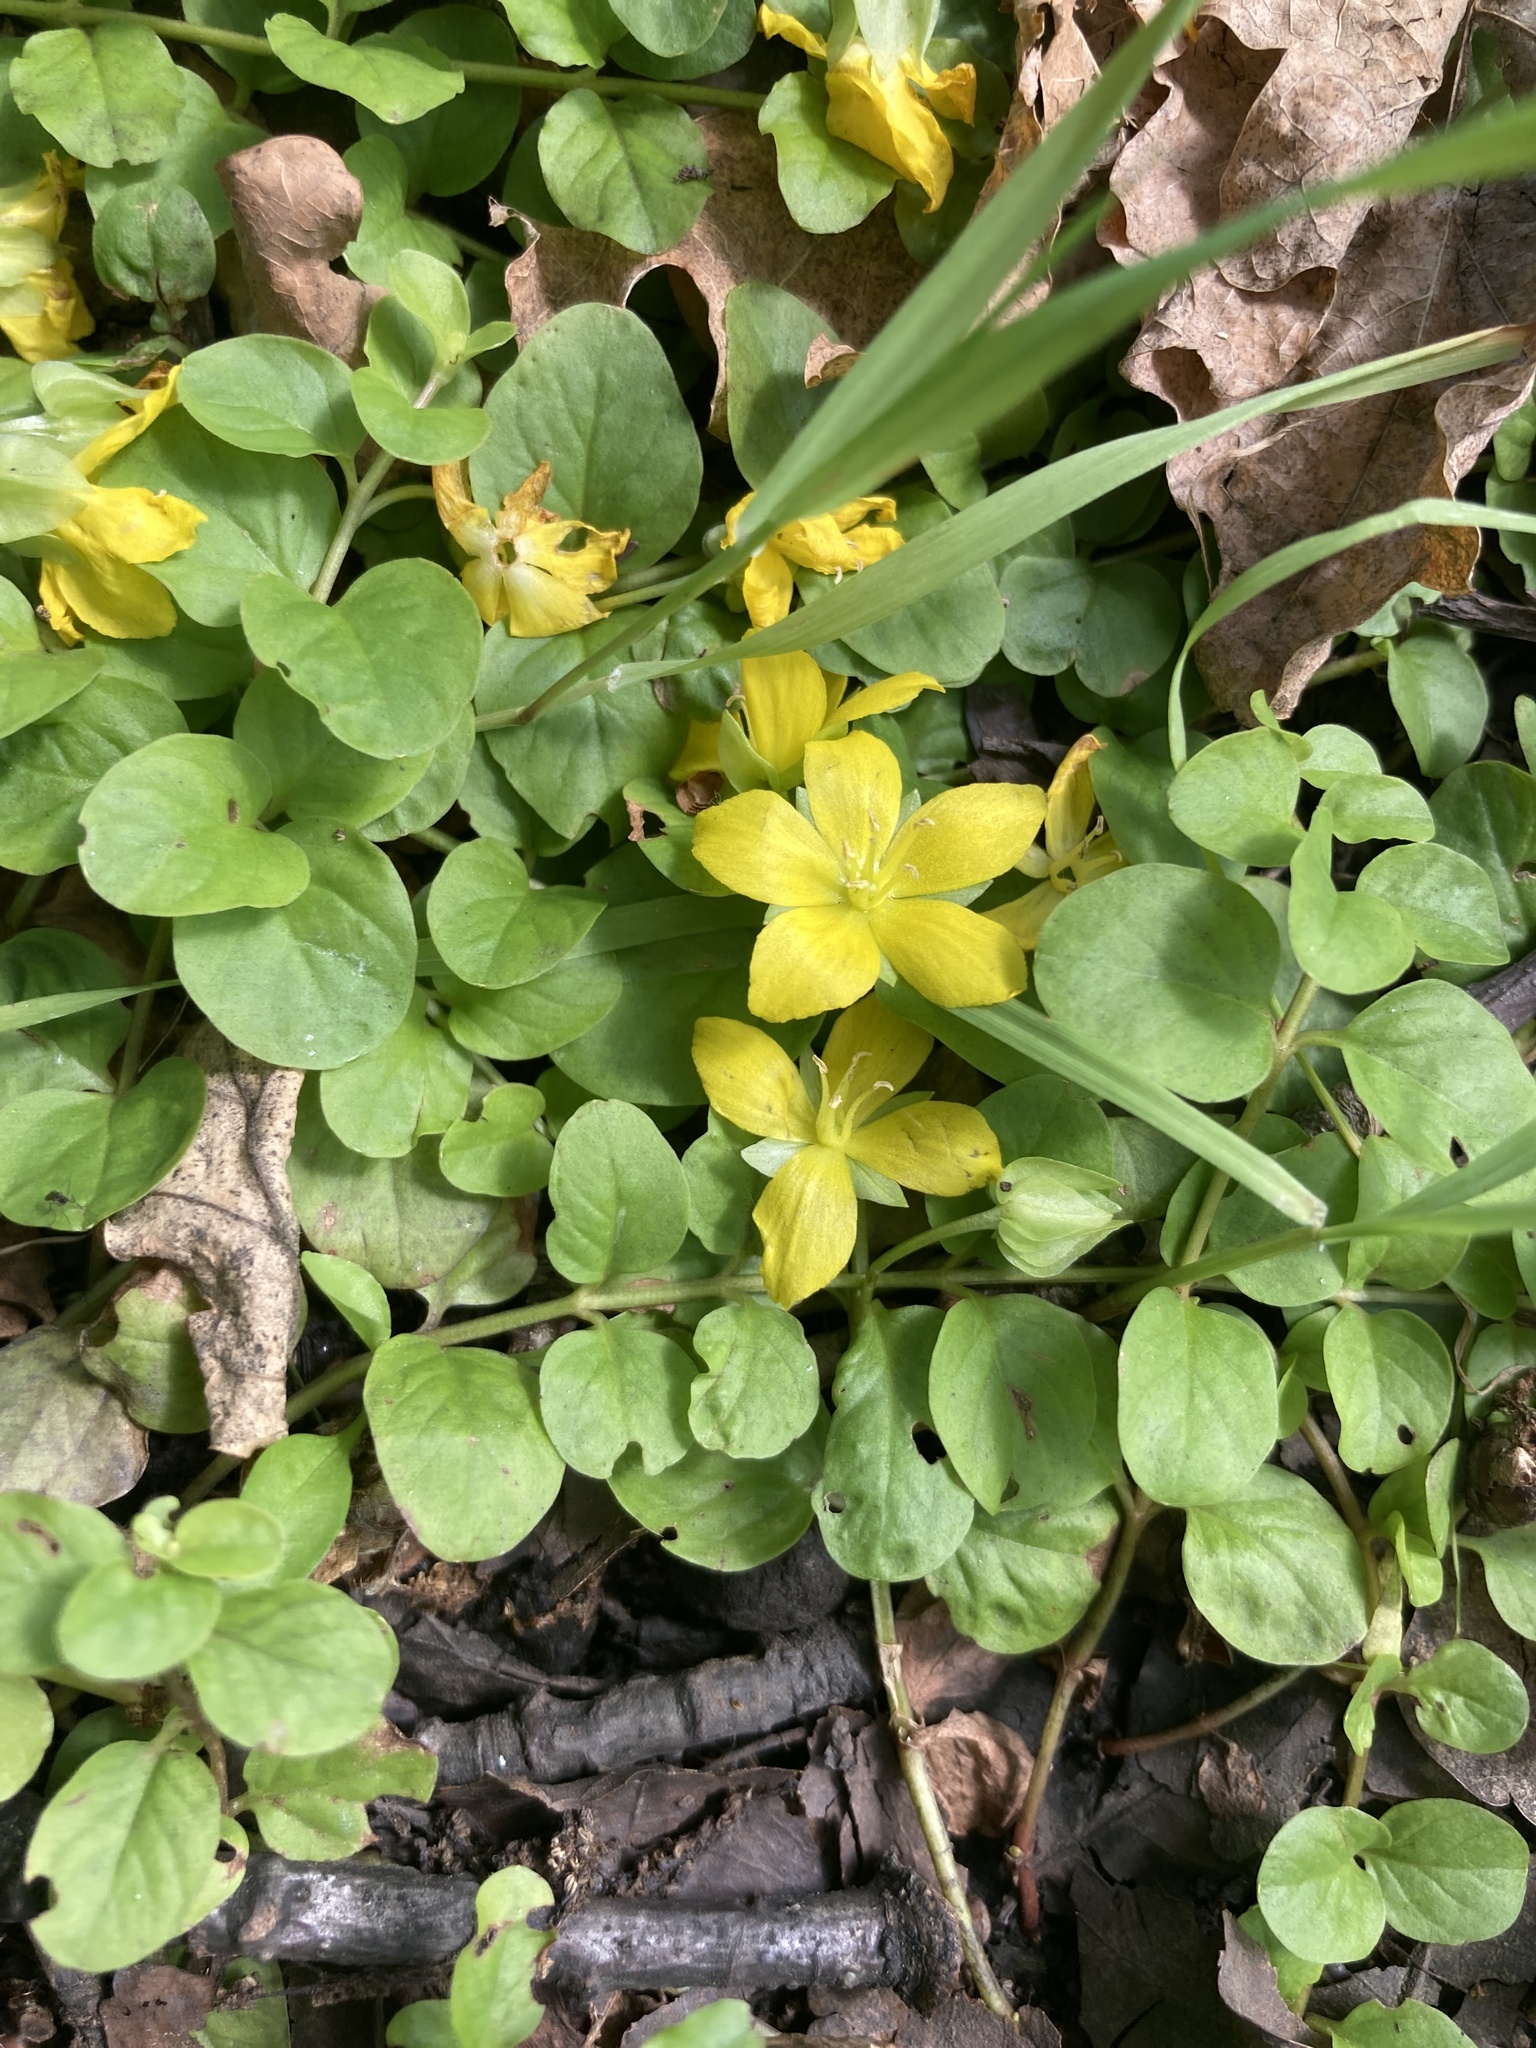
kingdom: Plantae
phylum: Tracheophyta
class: Magnoliopsida
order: Ericales
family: Primulaceae
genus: Lysimachia
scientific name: Lysimachia nummularia
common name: Moneywort
